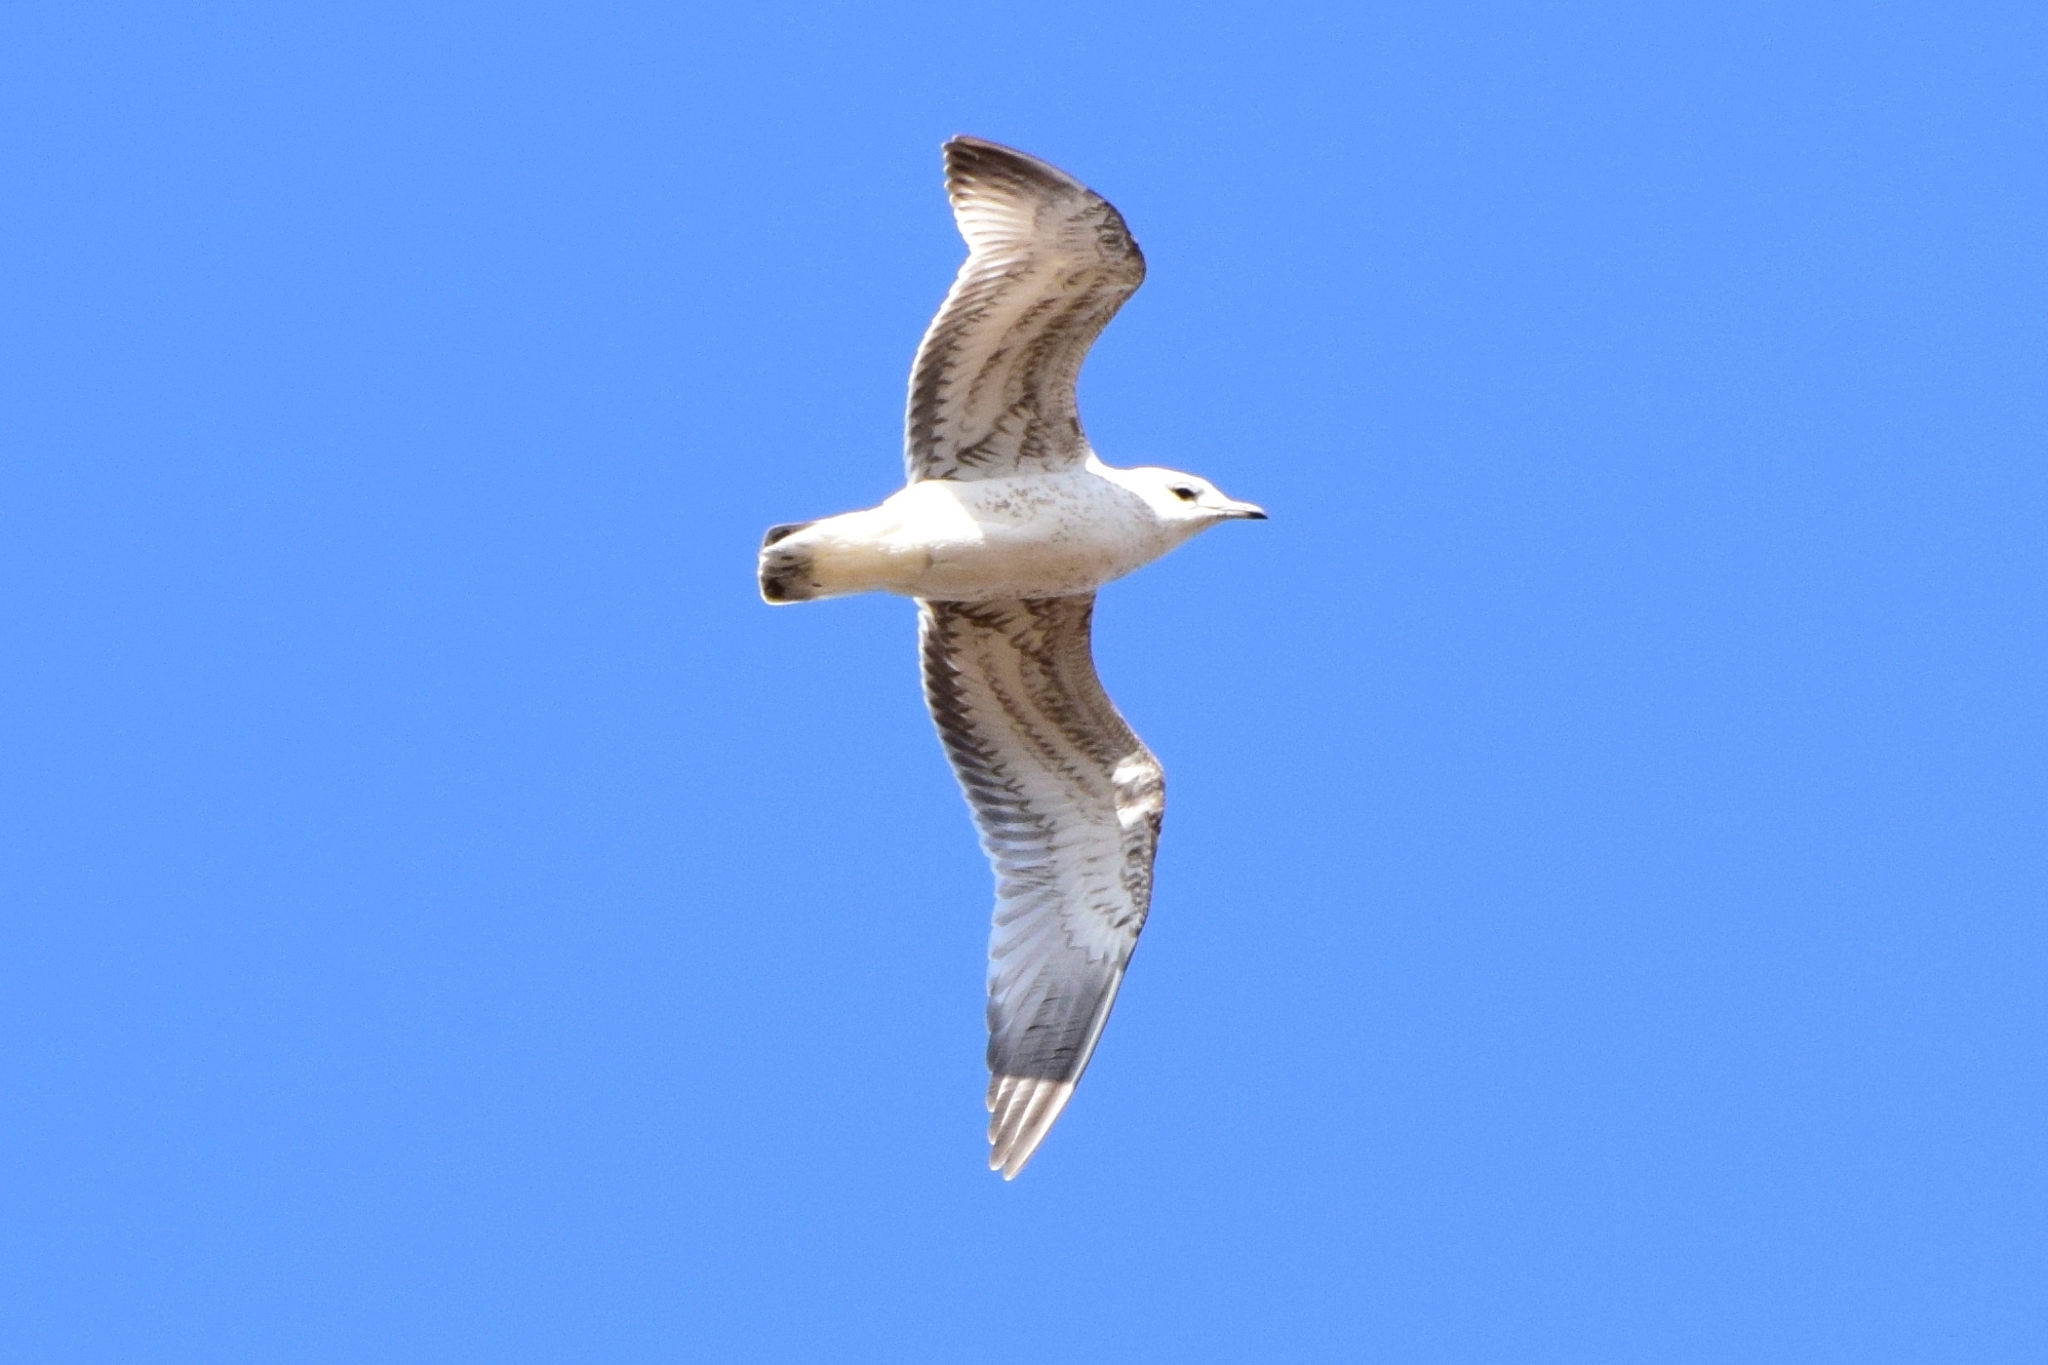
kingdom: Animalia
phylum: Chordata
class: Aves
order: Charadriiformes
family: Laridae
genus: Larus
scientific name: Larus canus
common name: Mew gull
